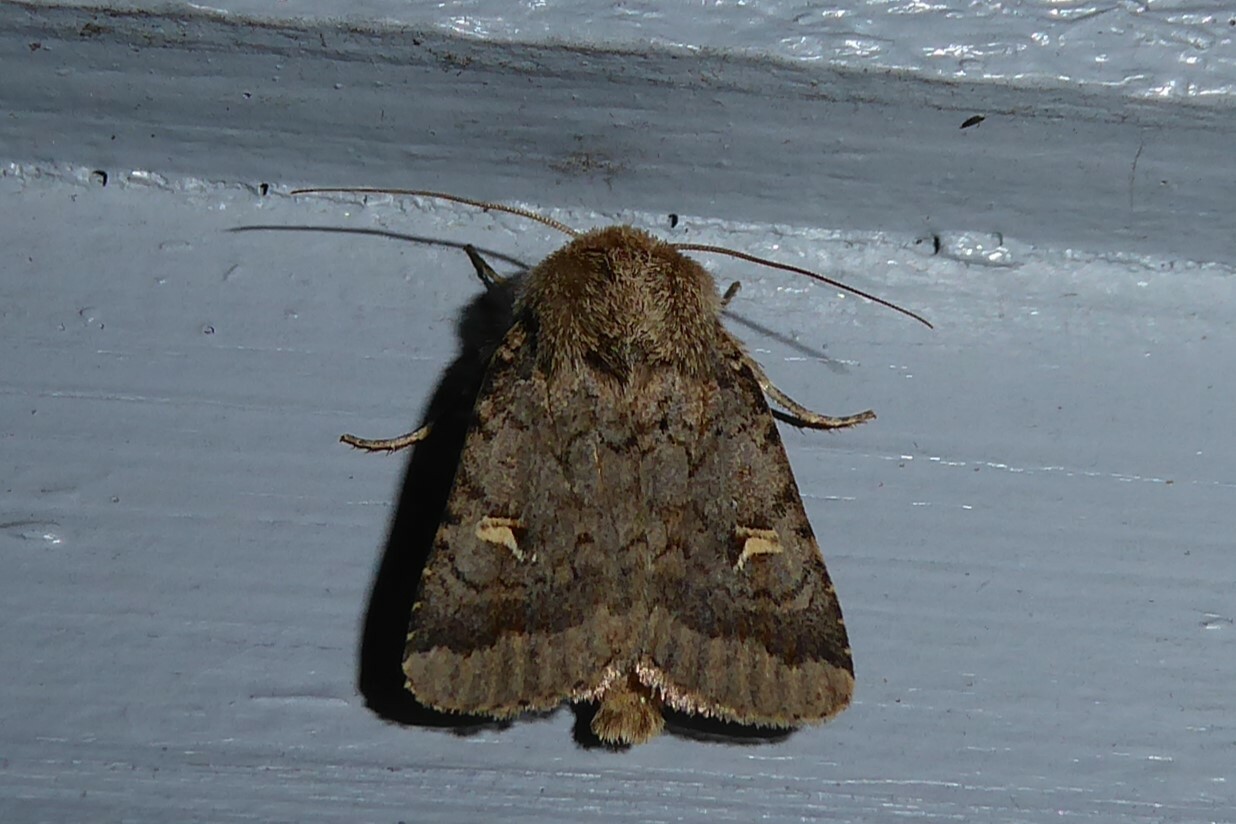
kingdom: Animalia
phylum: Arthropoda
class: Insecta
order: Lepidoptera
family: Noctuidae
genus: Proteuxoa
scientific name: Proteuxoa tetronycha
